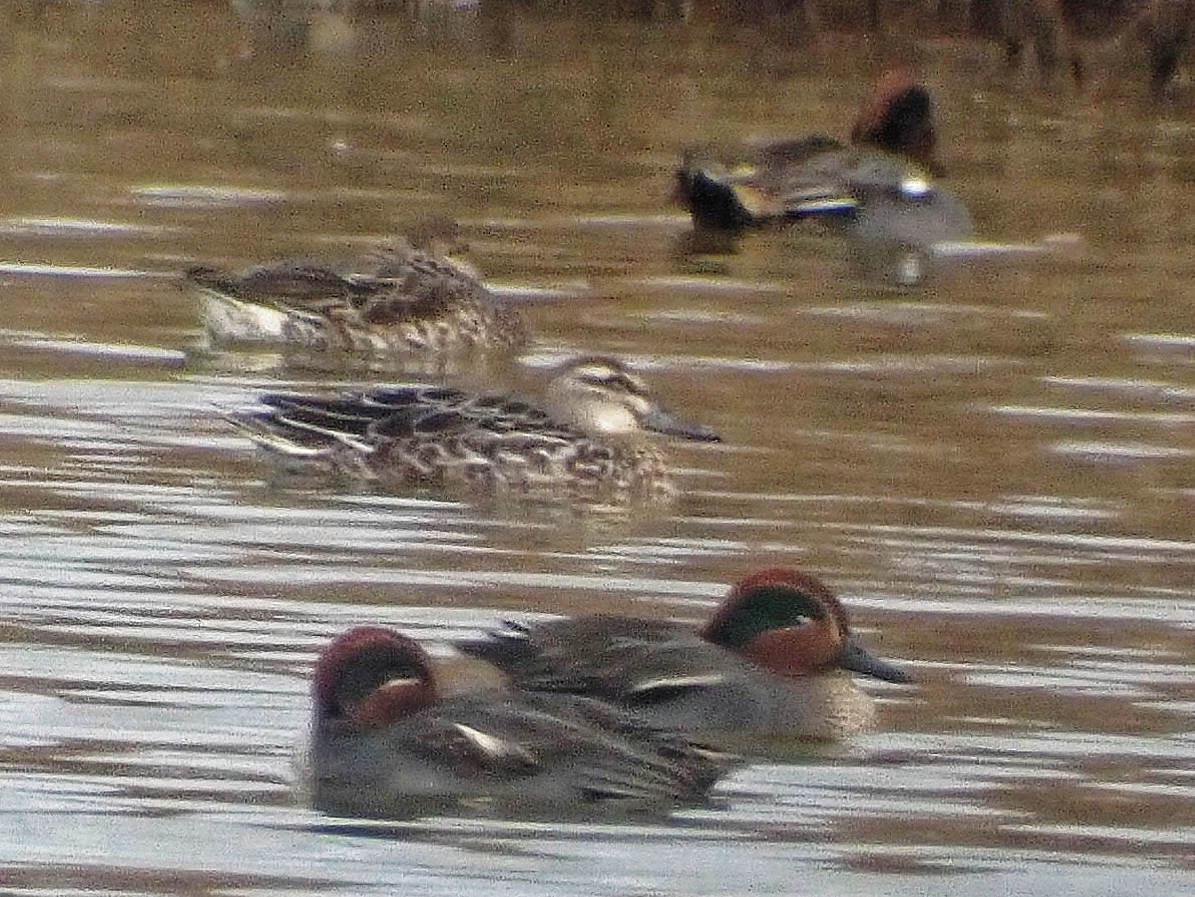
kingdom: Animalia
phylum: Chordata
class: Aves
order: Anseriformes
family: Anatidae
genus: Spatula
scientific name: Spatula querquedula
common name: Garganey
